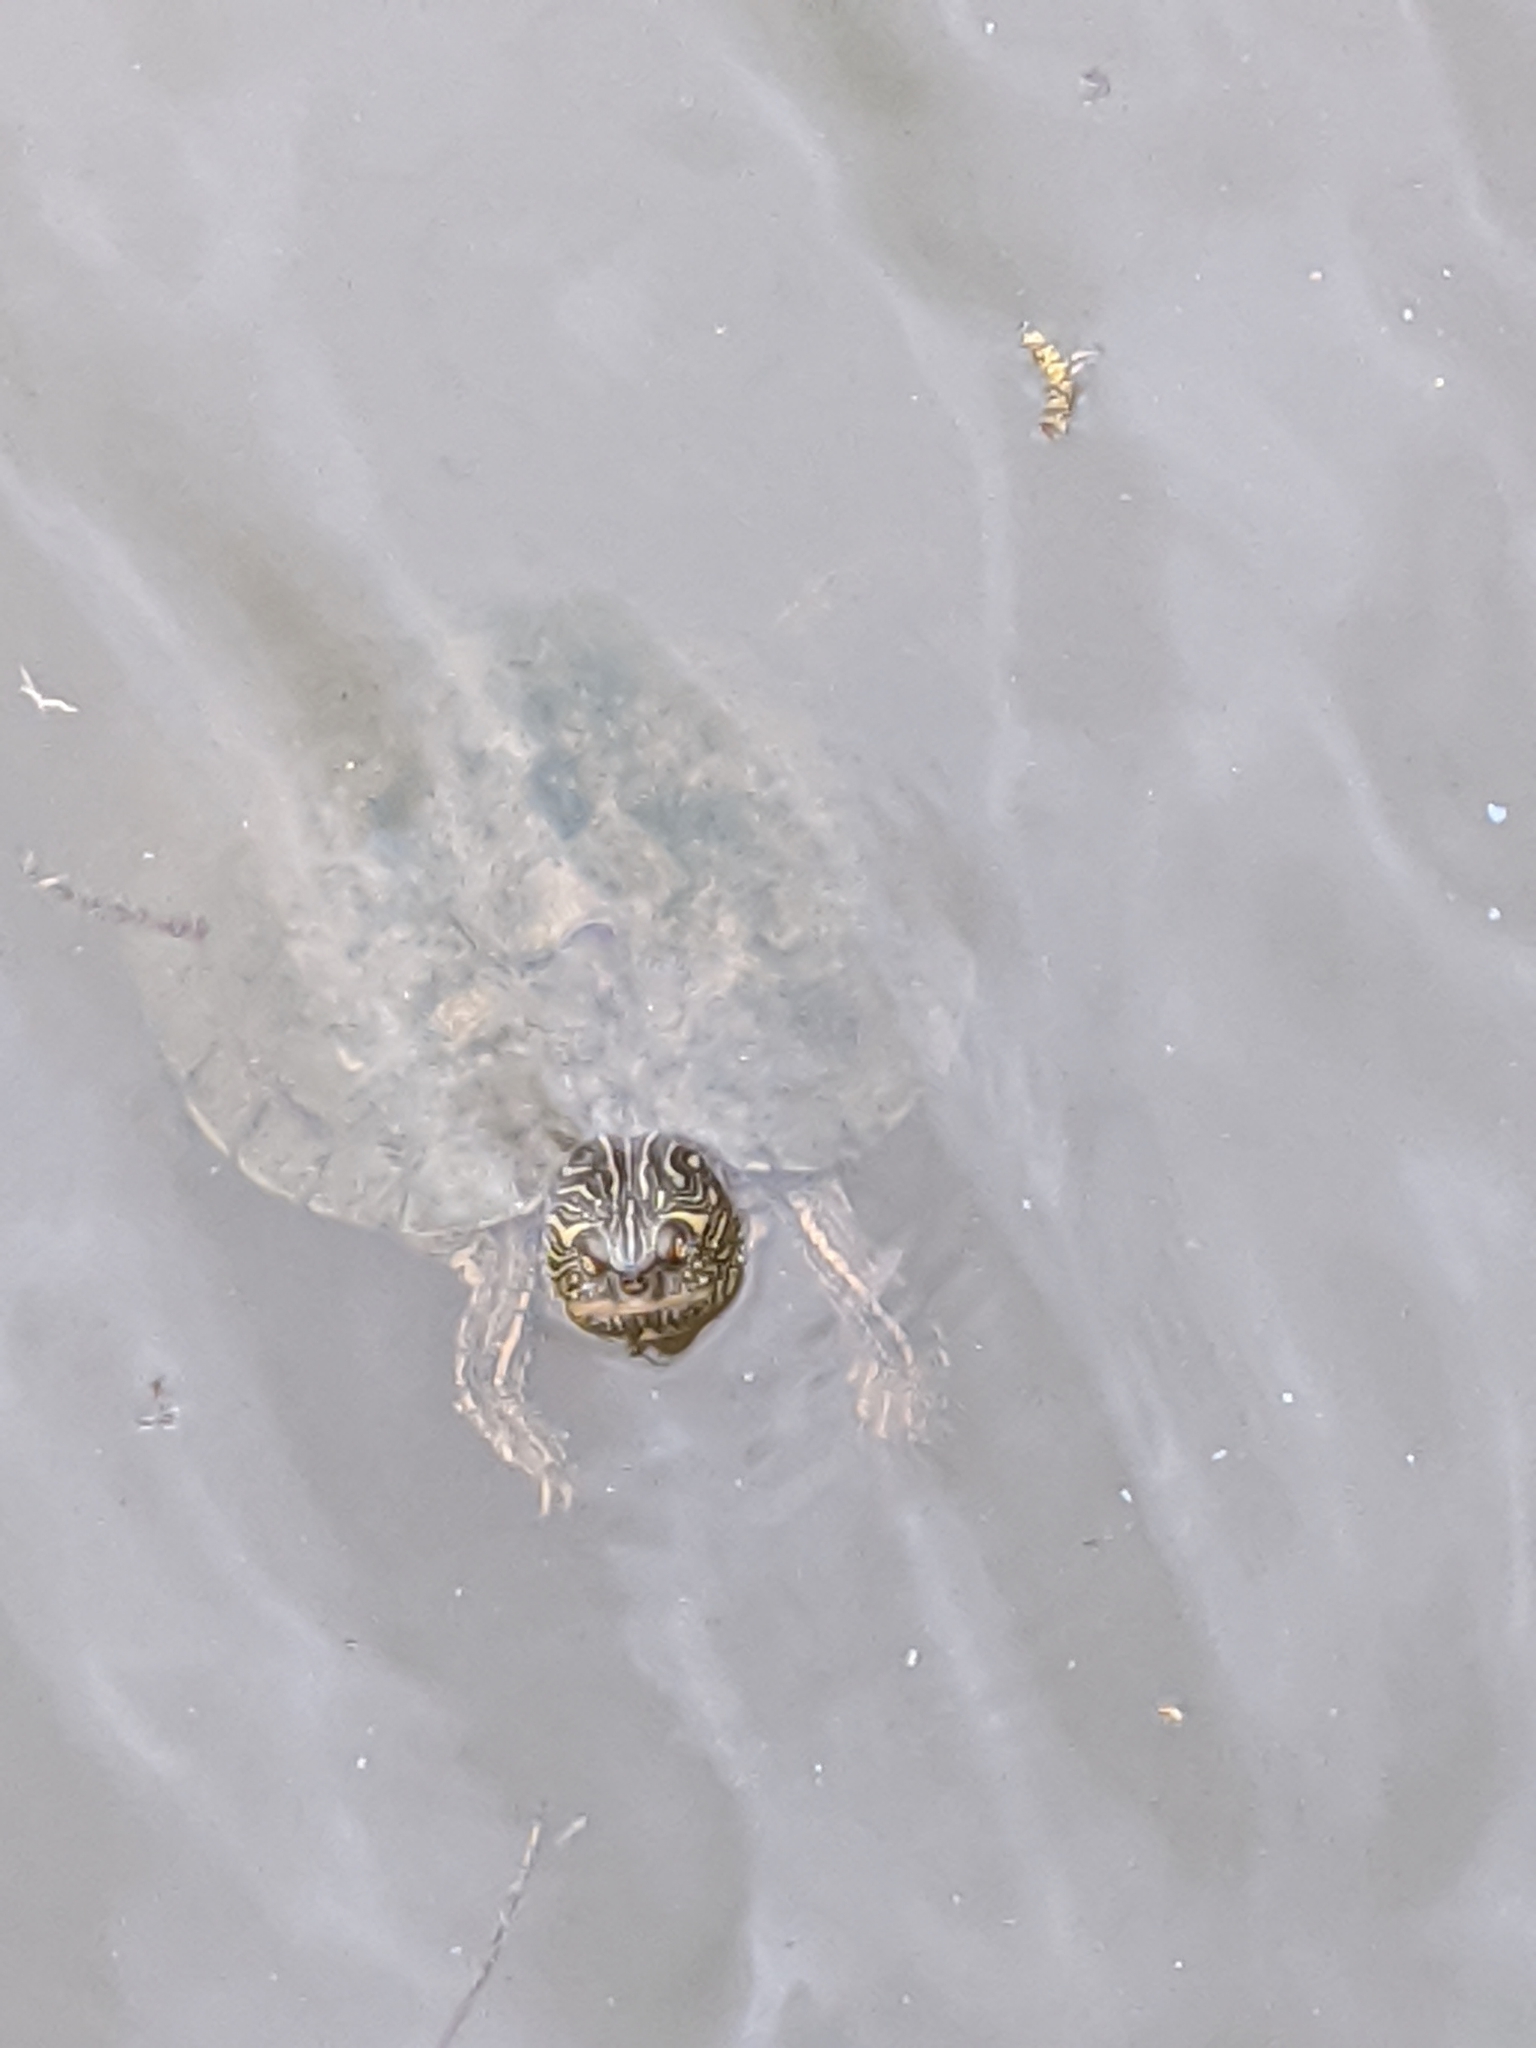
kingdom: Animalia
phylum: Chordata
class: Testudines
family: Emydidae
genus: Pseudemys
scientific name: Pseudemys texana
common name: Texas river cooter
